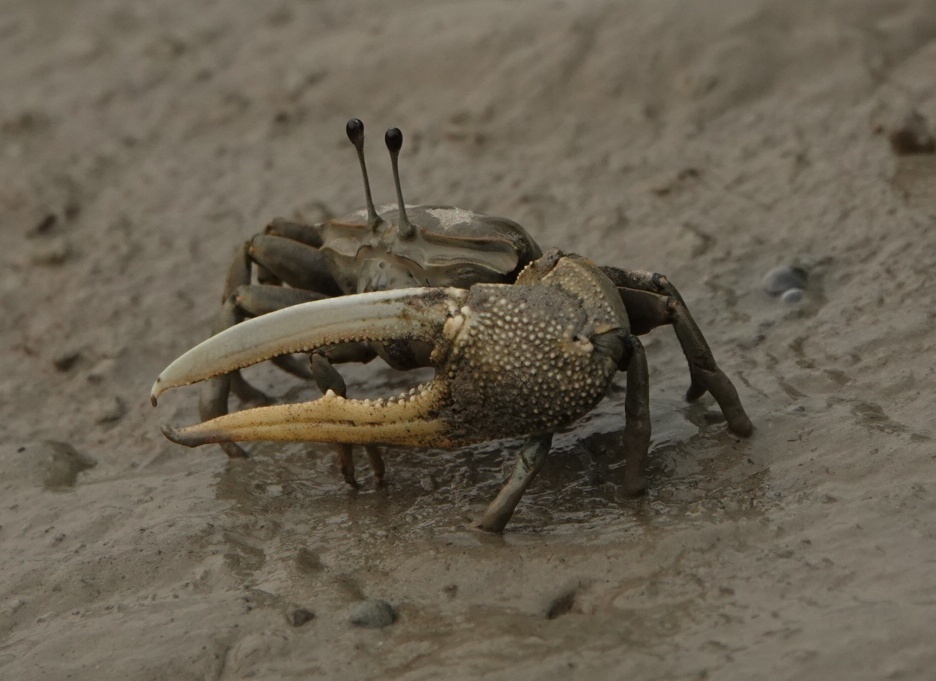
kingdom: Animalia
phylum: Arthropoda
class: Malacostraca
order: Decapoda
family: Ocypodidae
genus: Tubuca
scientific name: Tubuca paradussumieri
